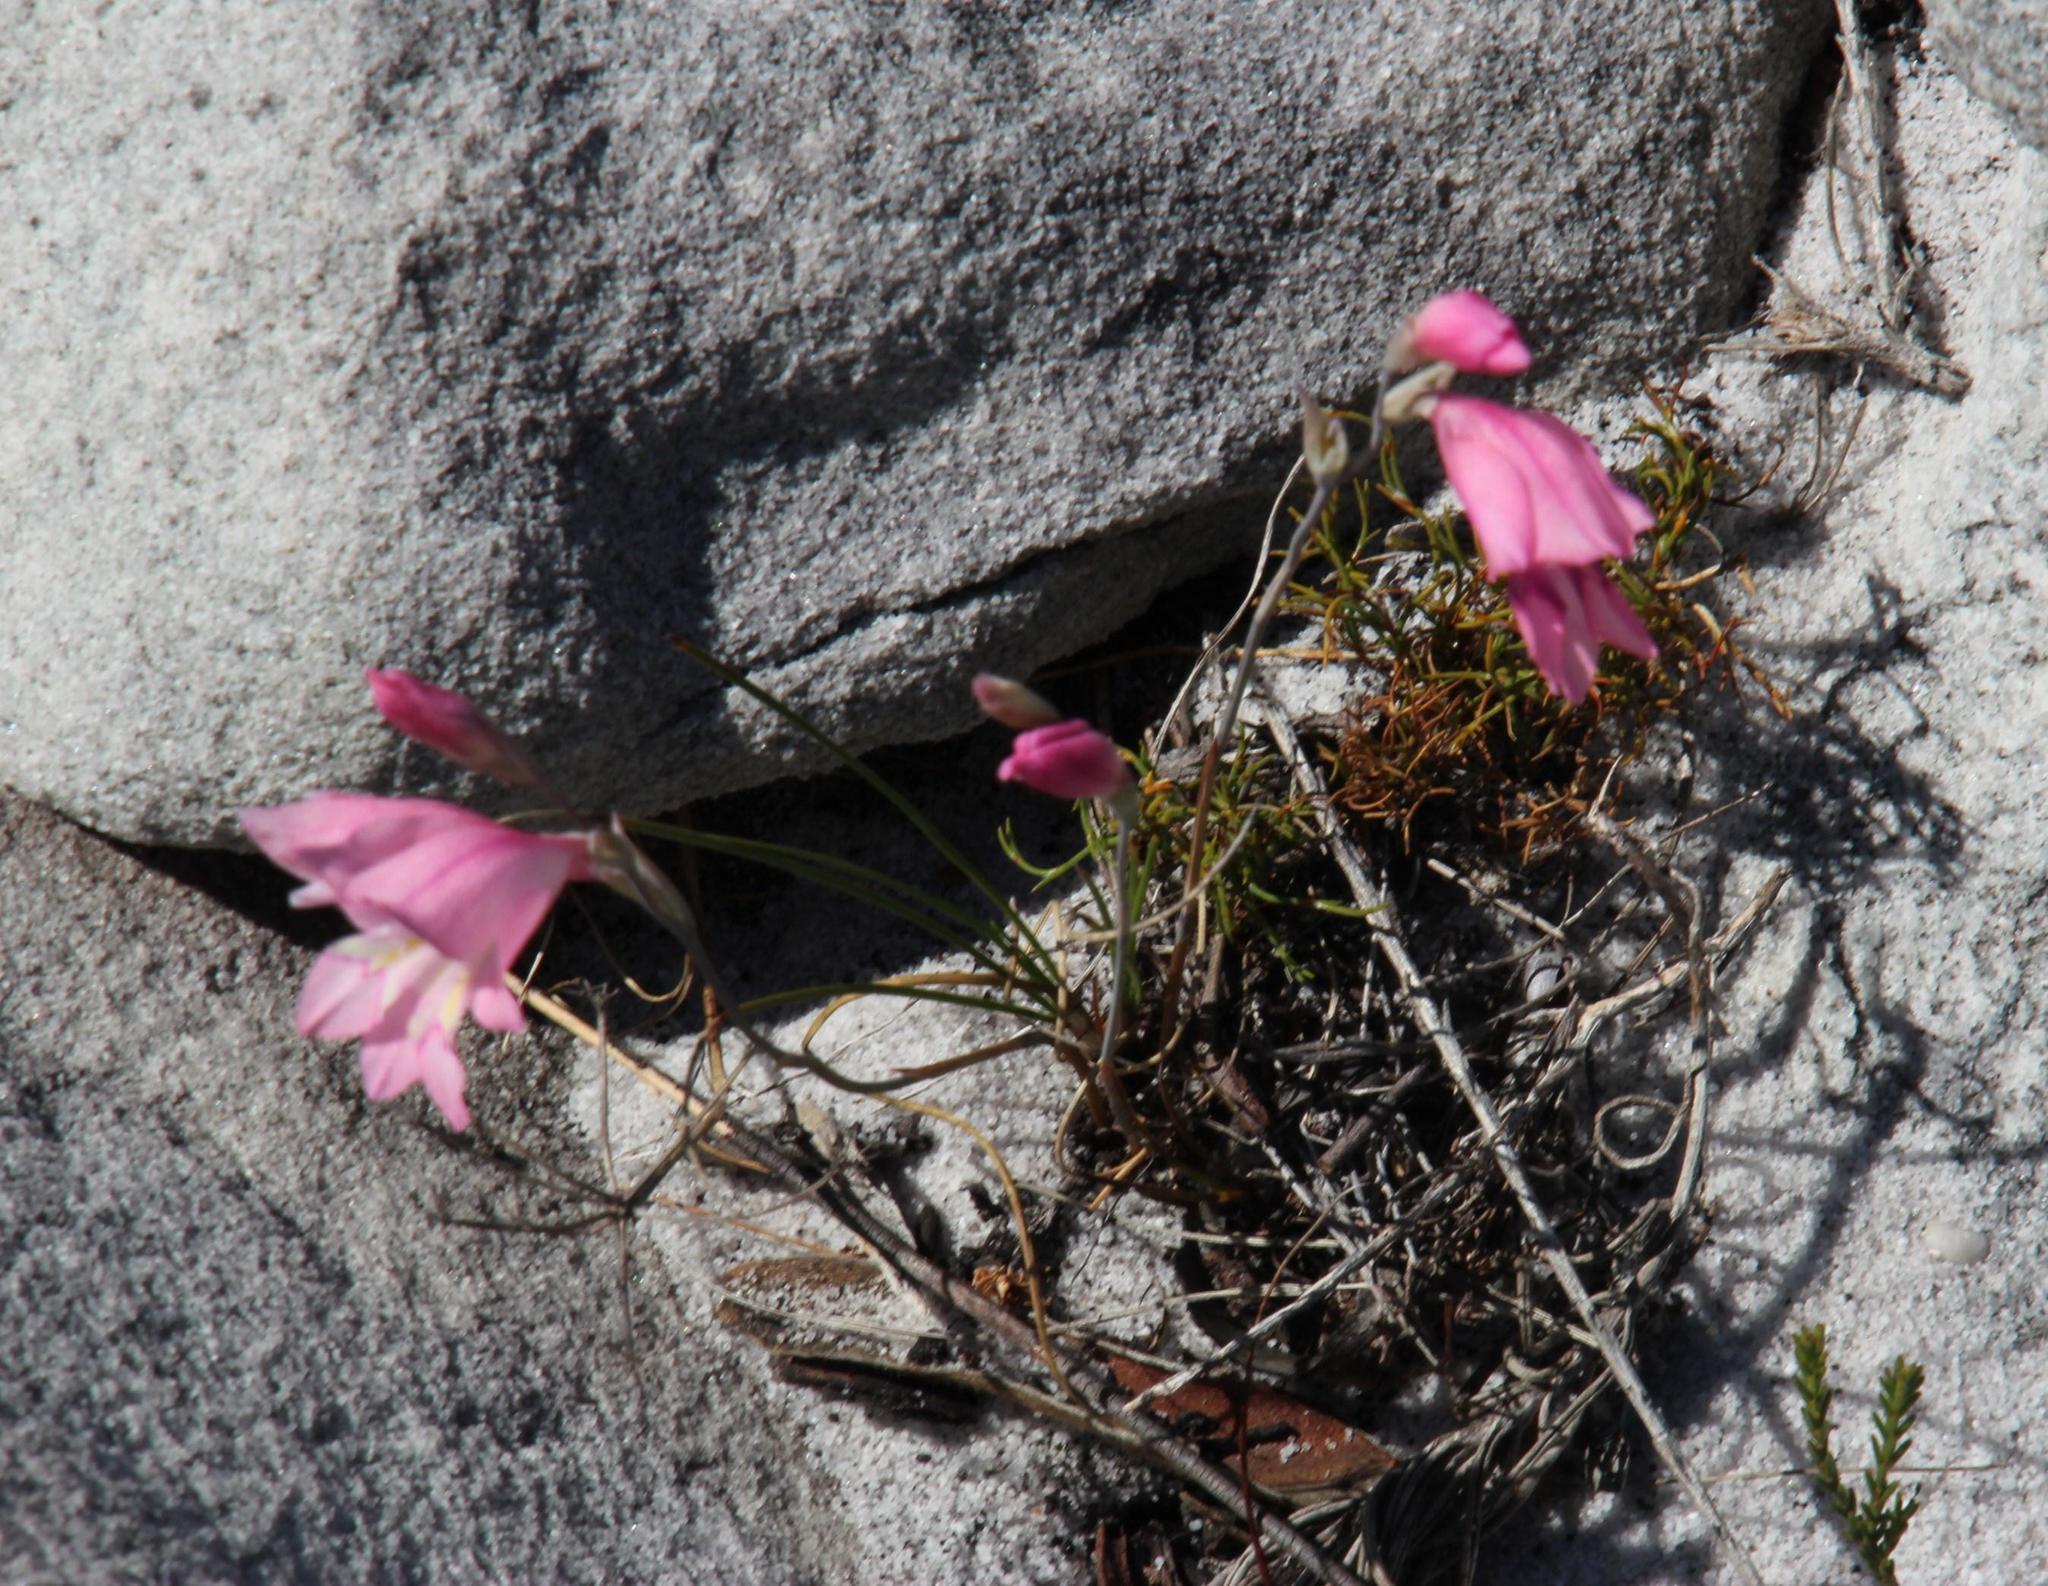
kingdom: Plantae
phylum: Tracheophyta
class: Liliopsida
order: Asparagales
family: Iridaceae
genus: Gladiolus
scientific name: Gladiolus brevifolius
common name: March pypie
